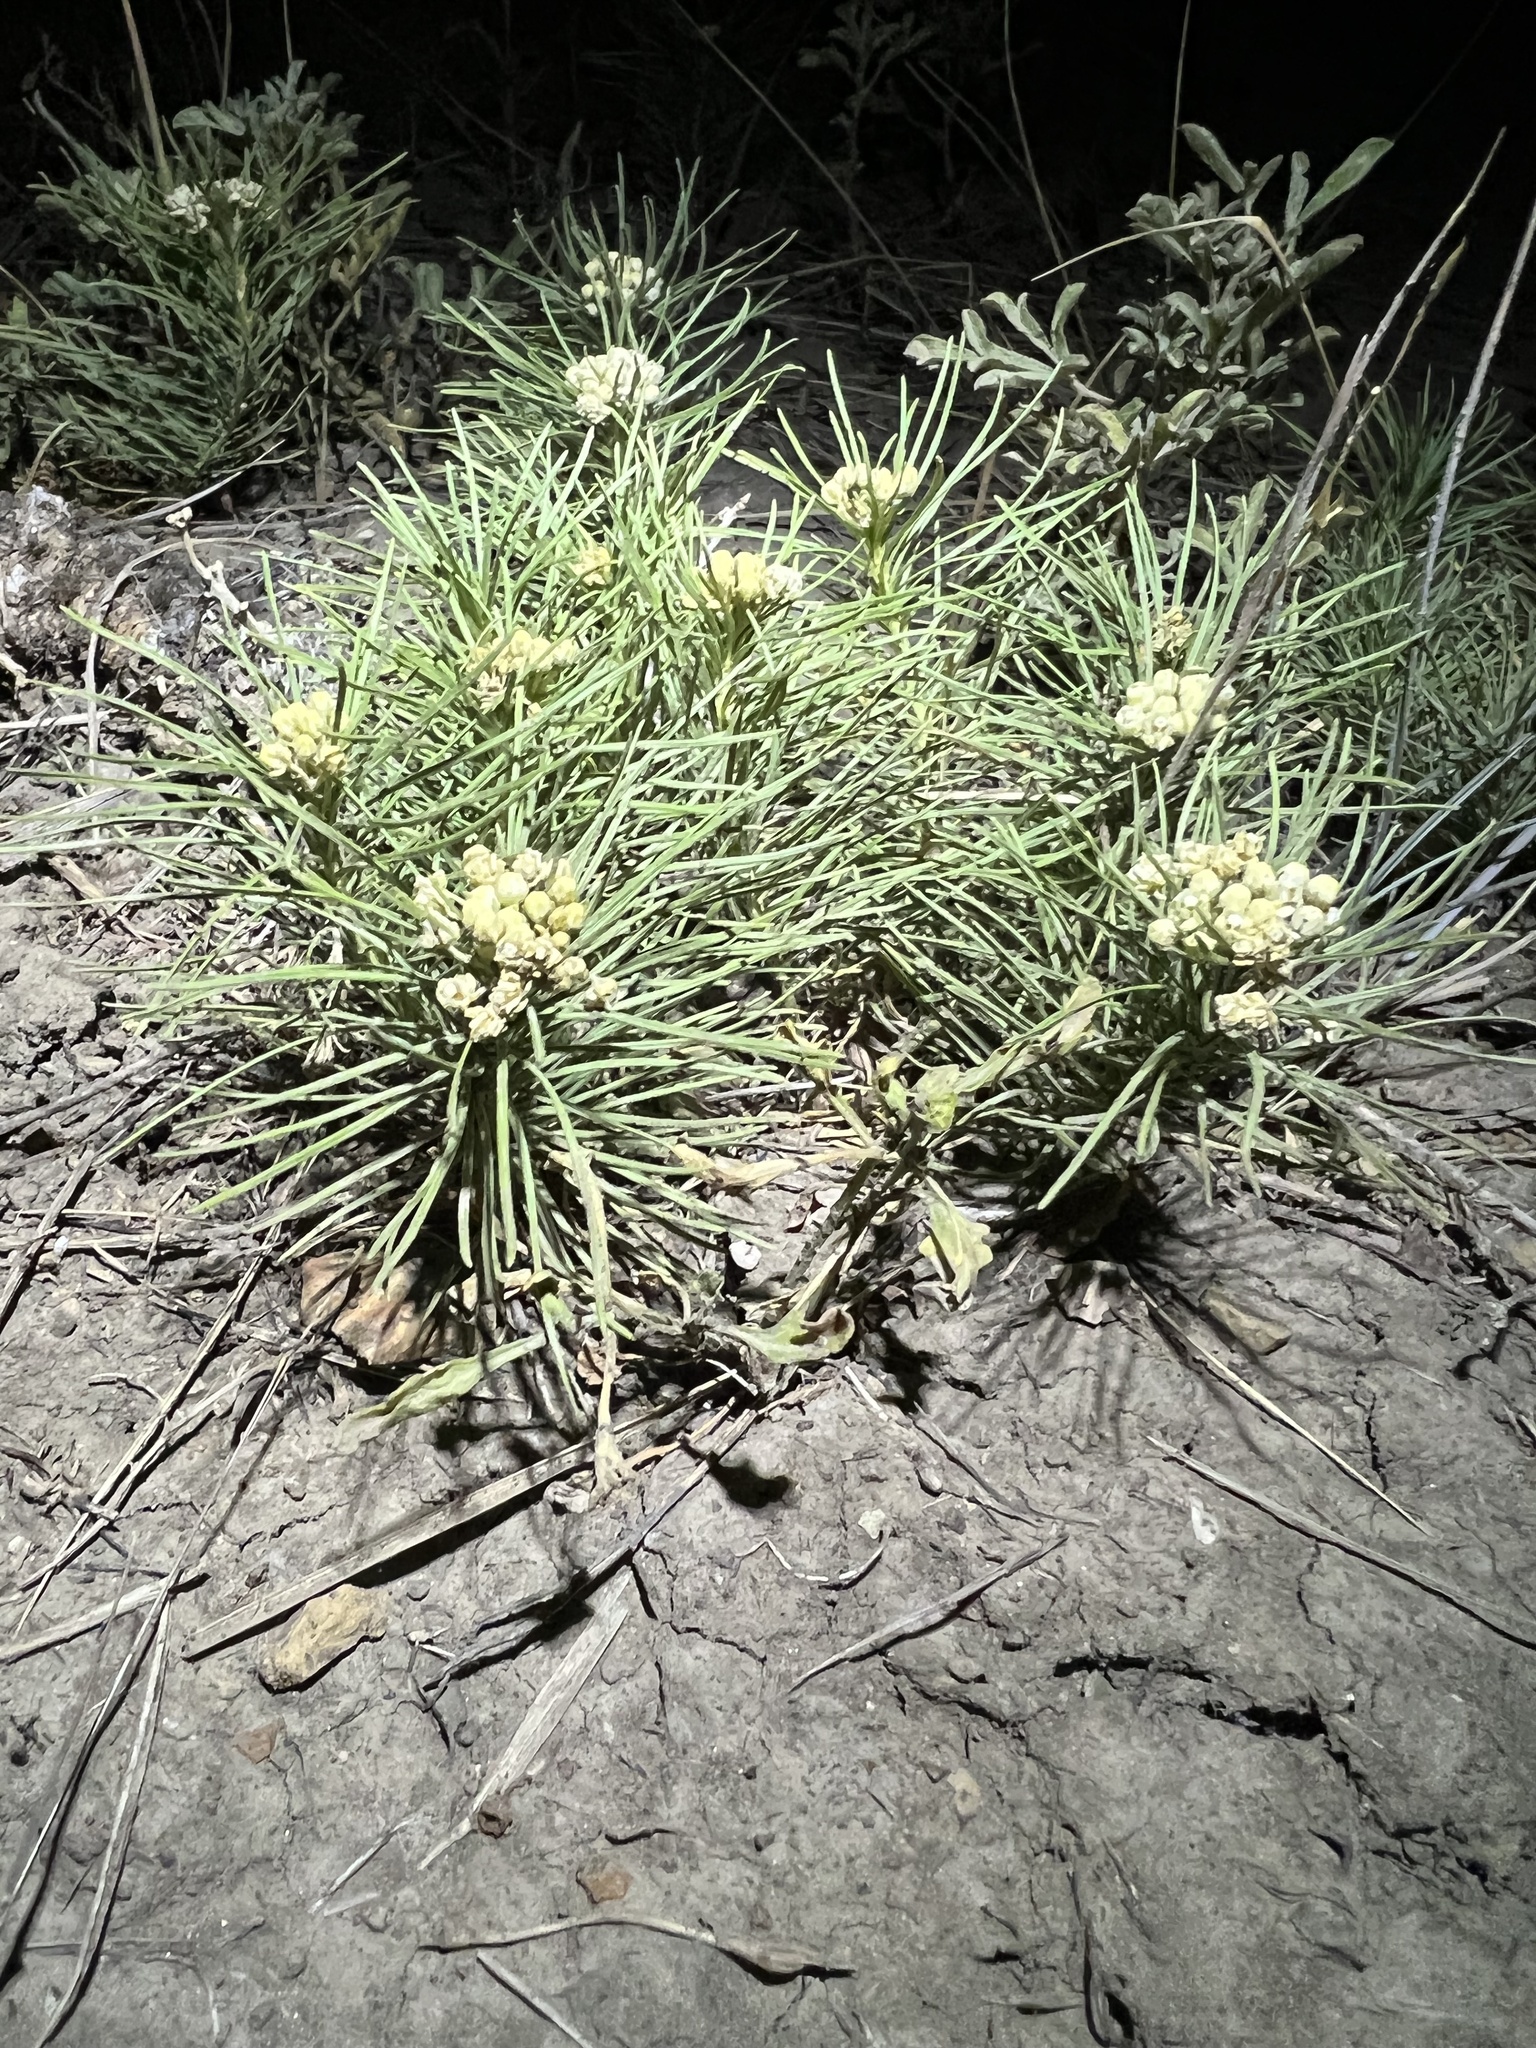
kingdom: Plantae
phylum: Tracheophyta
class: Magnoliopsida
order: Gentianales
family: Apocynaceae
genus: Asclepias
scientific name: Asclepias pumila
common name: Dwarf milkweed
